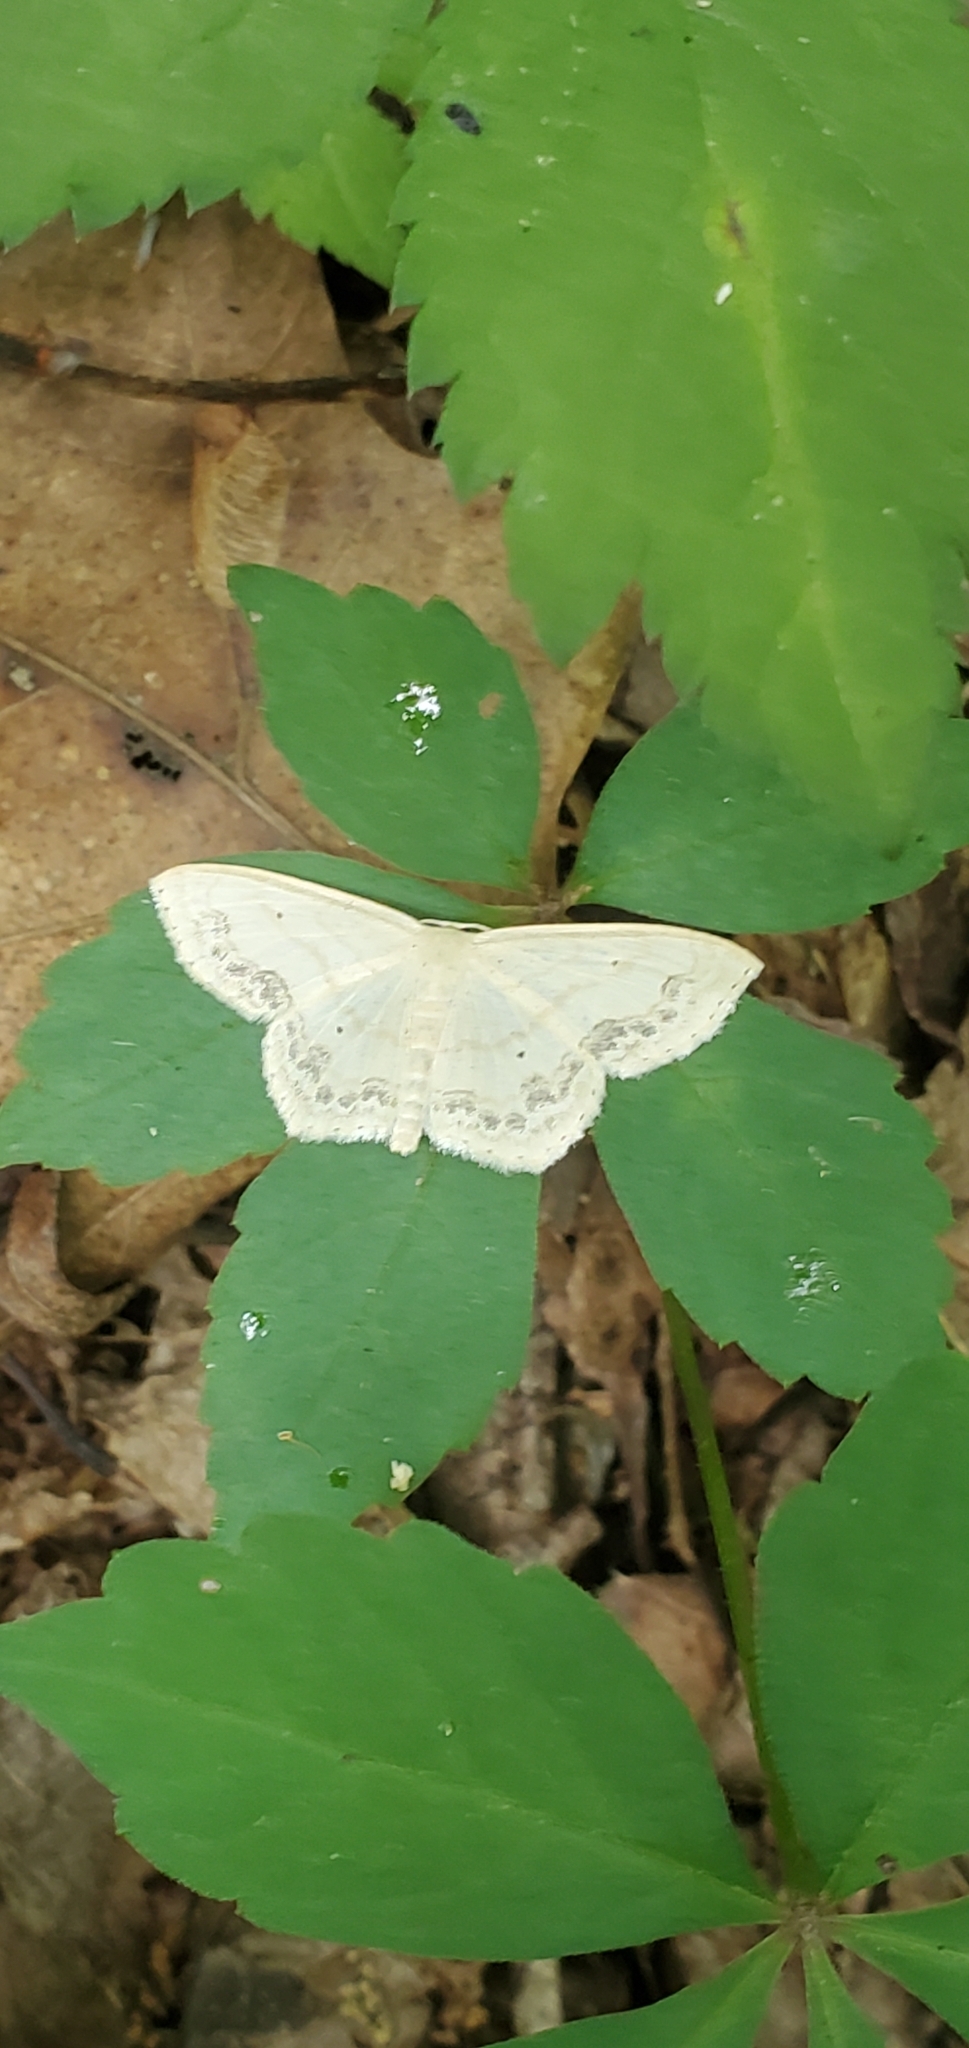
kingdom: Animalia
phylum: Arthropoda
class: Insecta
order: Lepidoptera
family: Geometridae
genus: Scopula
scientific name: Scopula limboundata
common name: Large lace border
